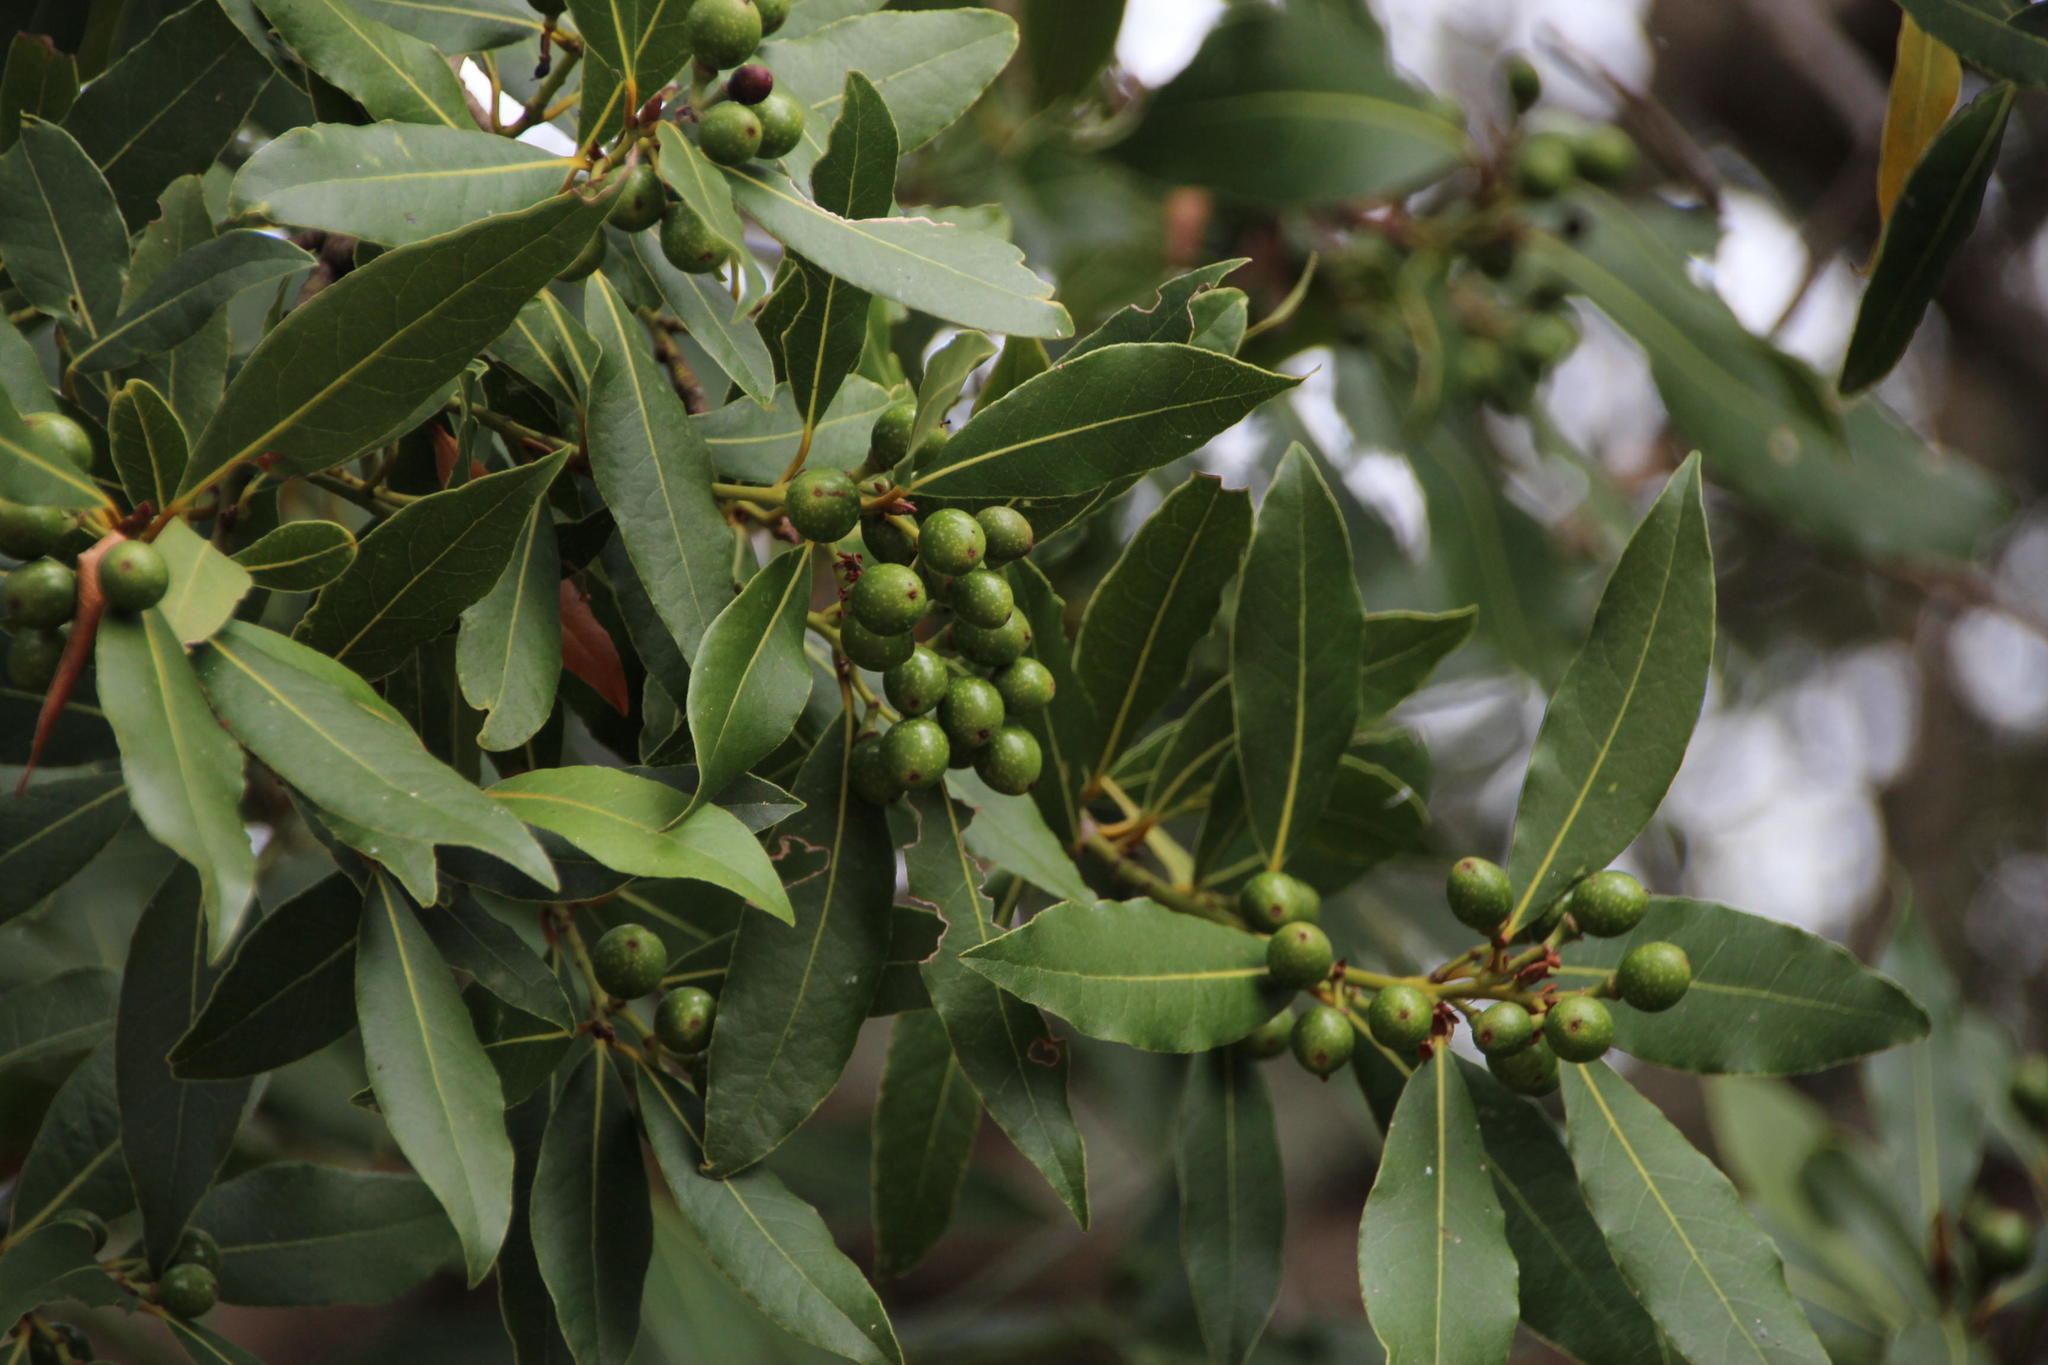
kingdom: Plantae
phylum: Tracheophyta
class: Magnoliopsida
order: Laurales
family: Lauraceae
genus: Laurus
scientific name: Laurus nobilis
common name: Bay
